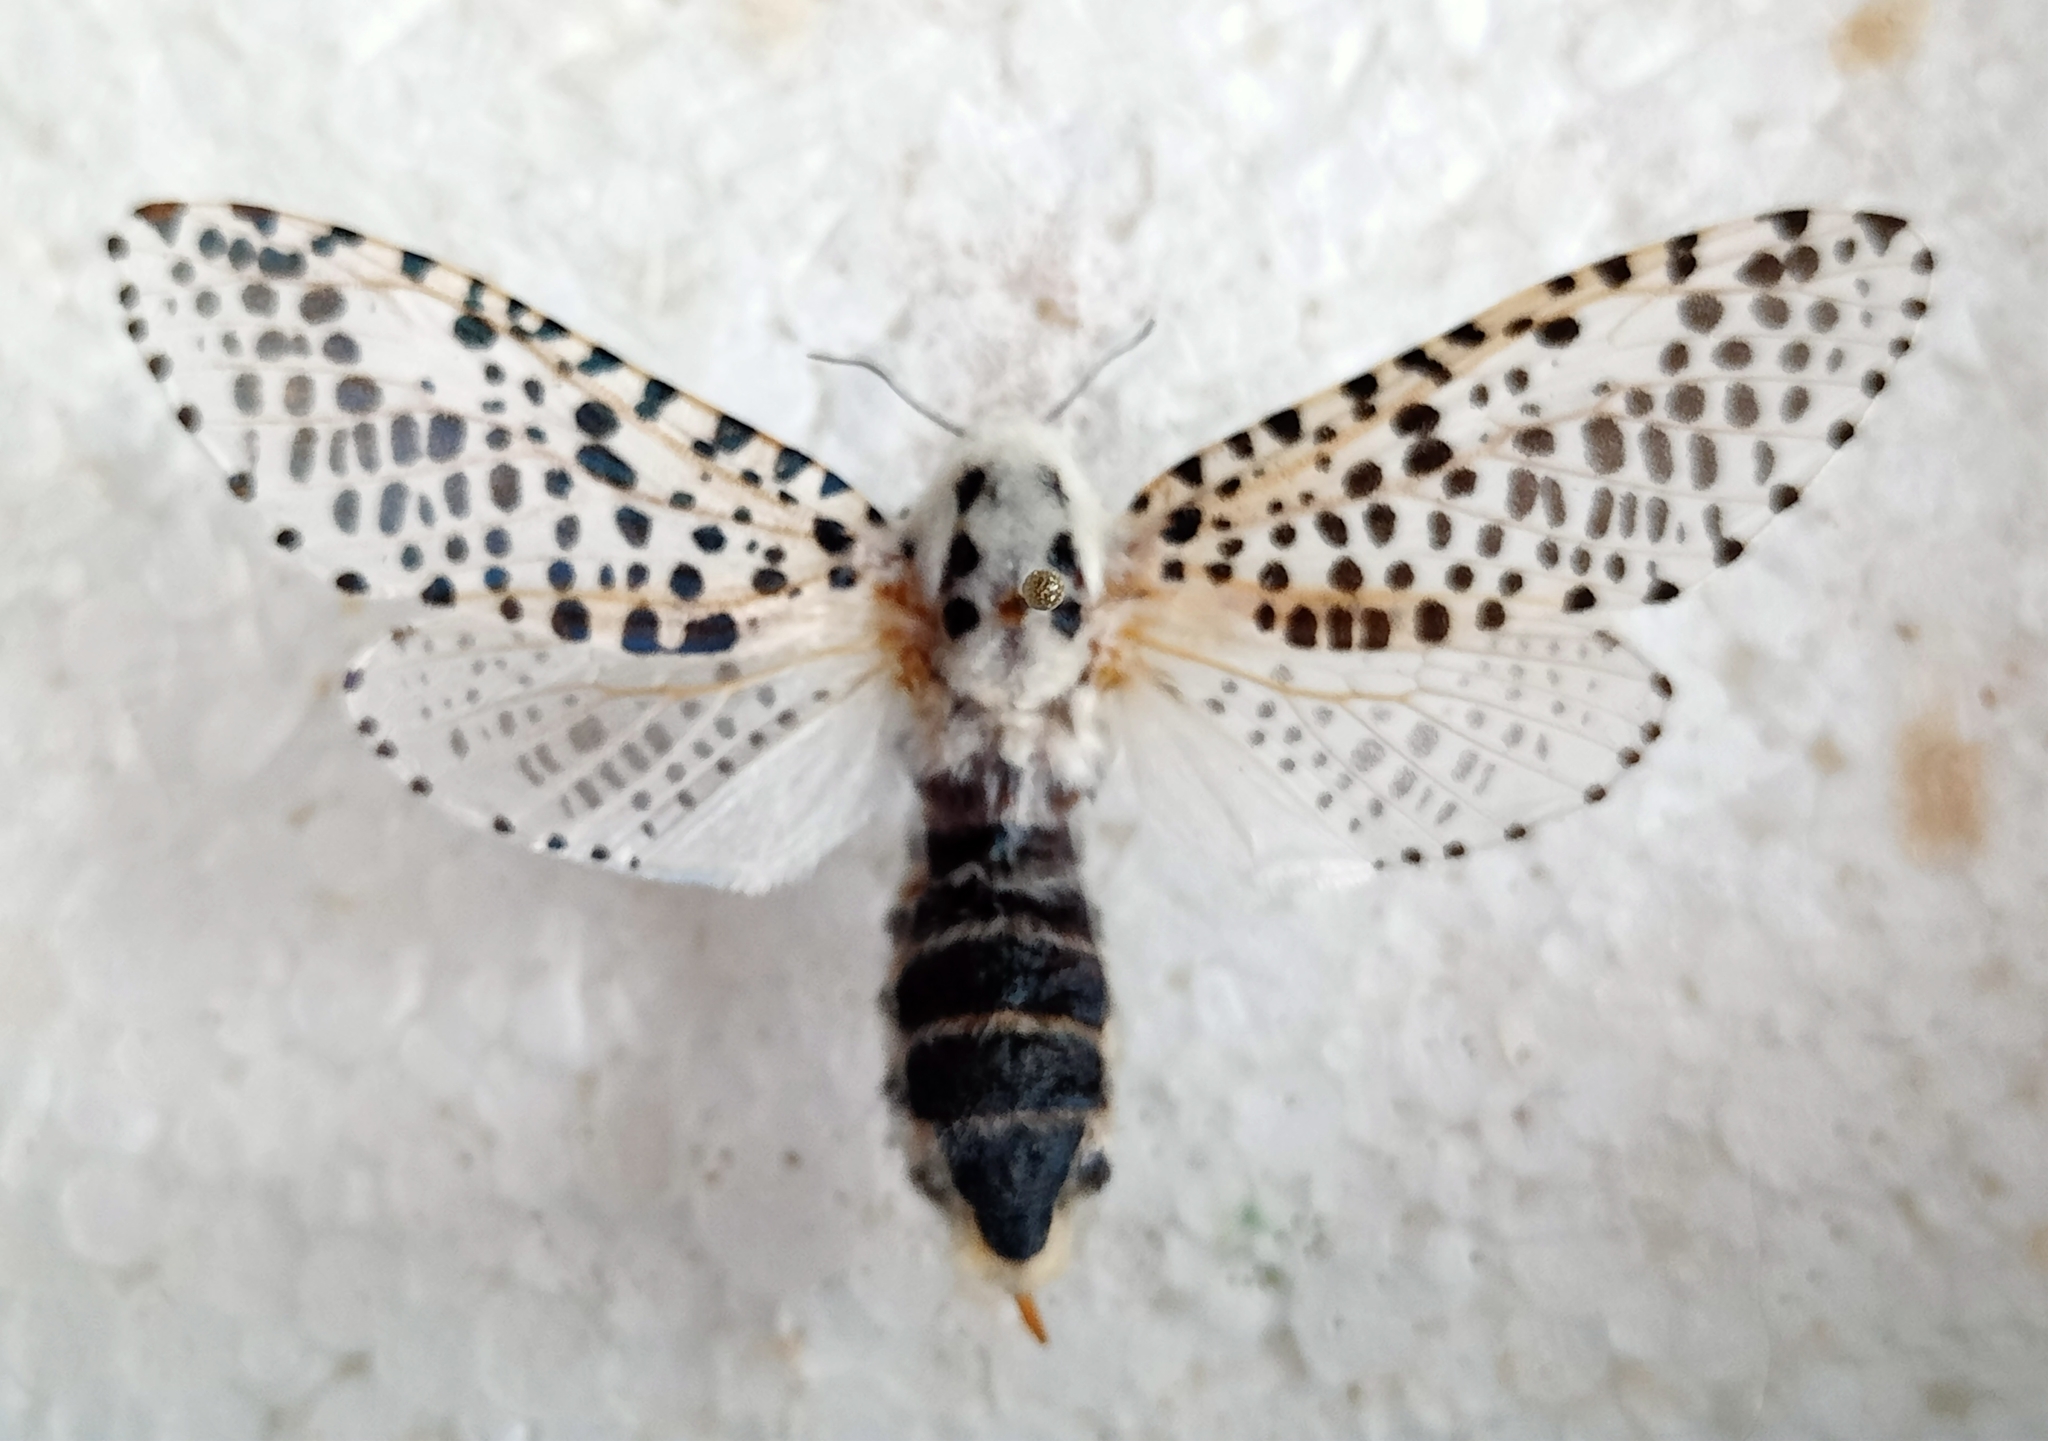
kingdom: Animalia
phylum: Arthropoda
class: Insecta
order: Lepidoptera
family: Cossidae
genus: Zeuzera
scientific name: Zeuzera pyrina
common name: Leopard moth
